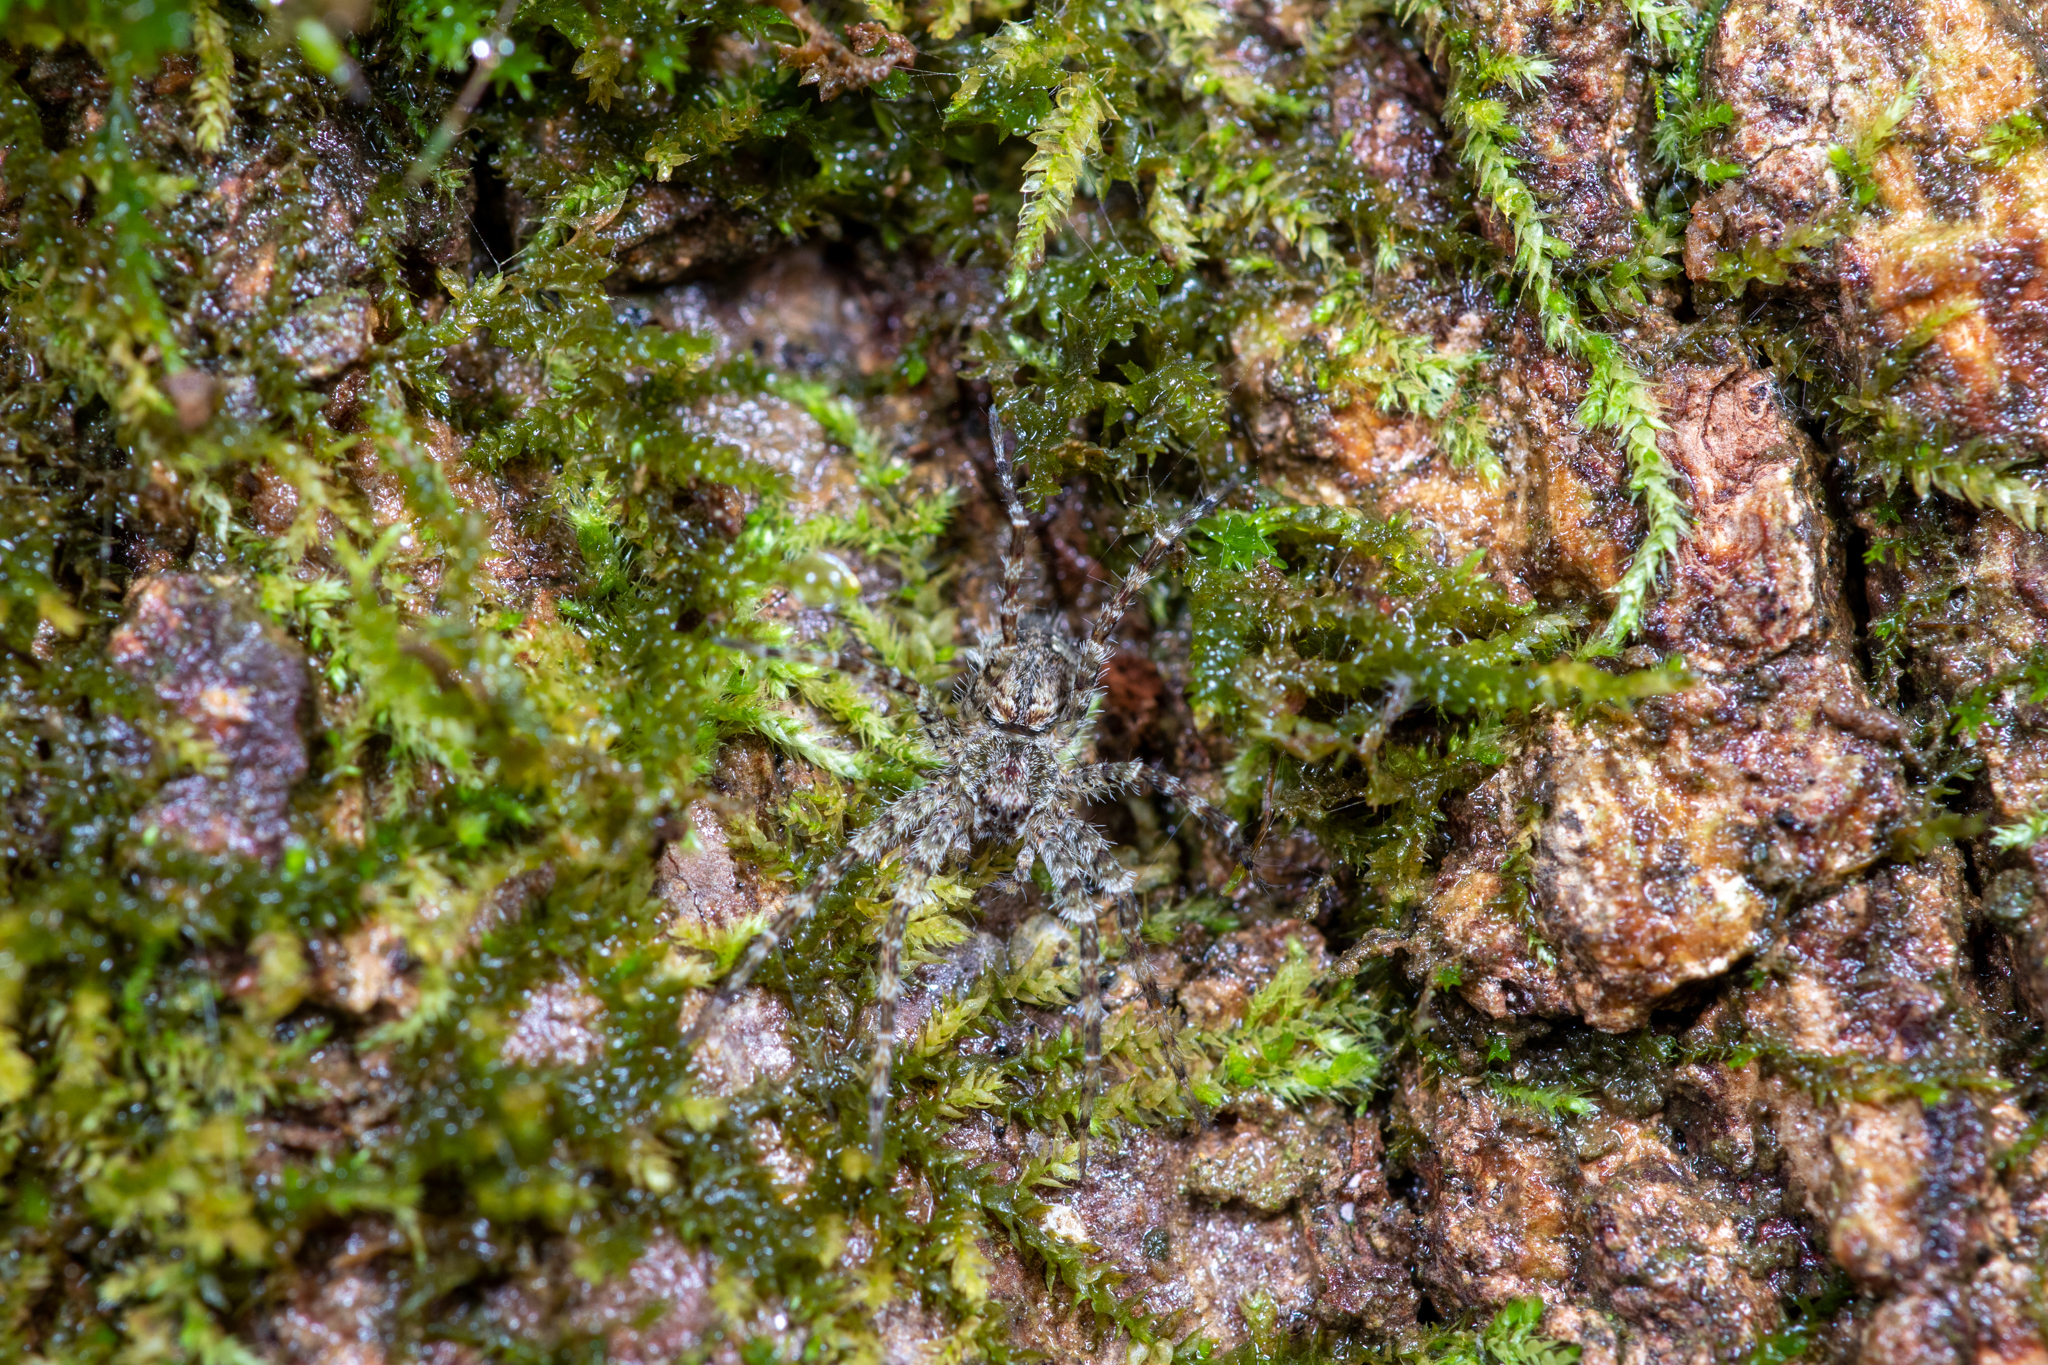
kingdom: Animalia
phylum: Arthropoda
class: Arachnida
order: Araneae
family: Pisauridae
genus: Dolomedes
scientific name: Dolomedes albineus
